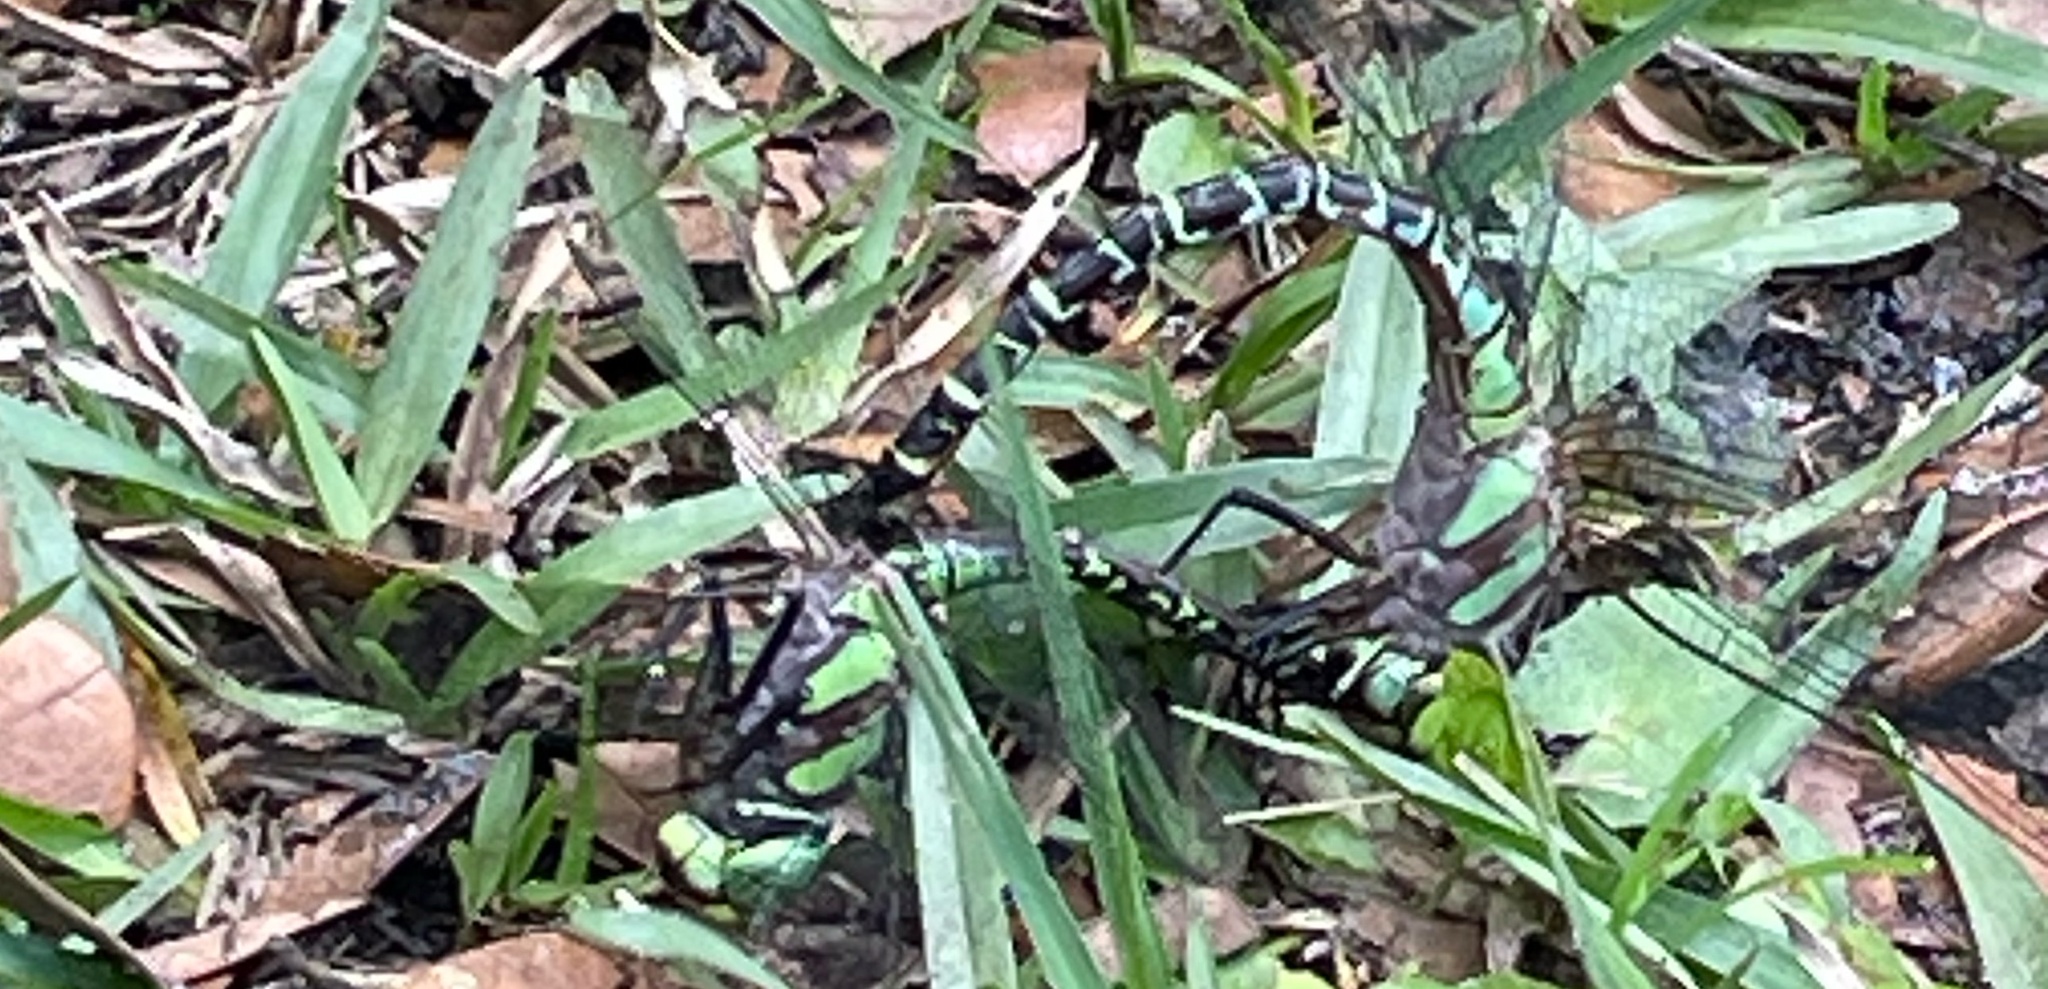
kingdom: Animalia
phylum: Arthropoda
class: Insecta
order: Odonata
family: Aeshnidae
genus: Coryphaeschna
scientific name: Coryphaeschna ingens
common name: Regal darner
